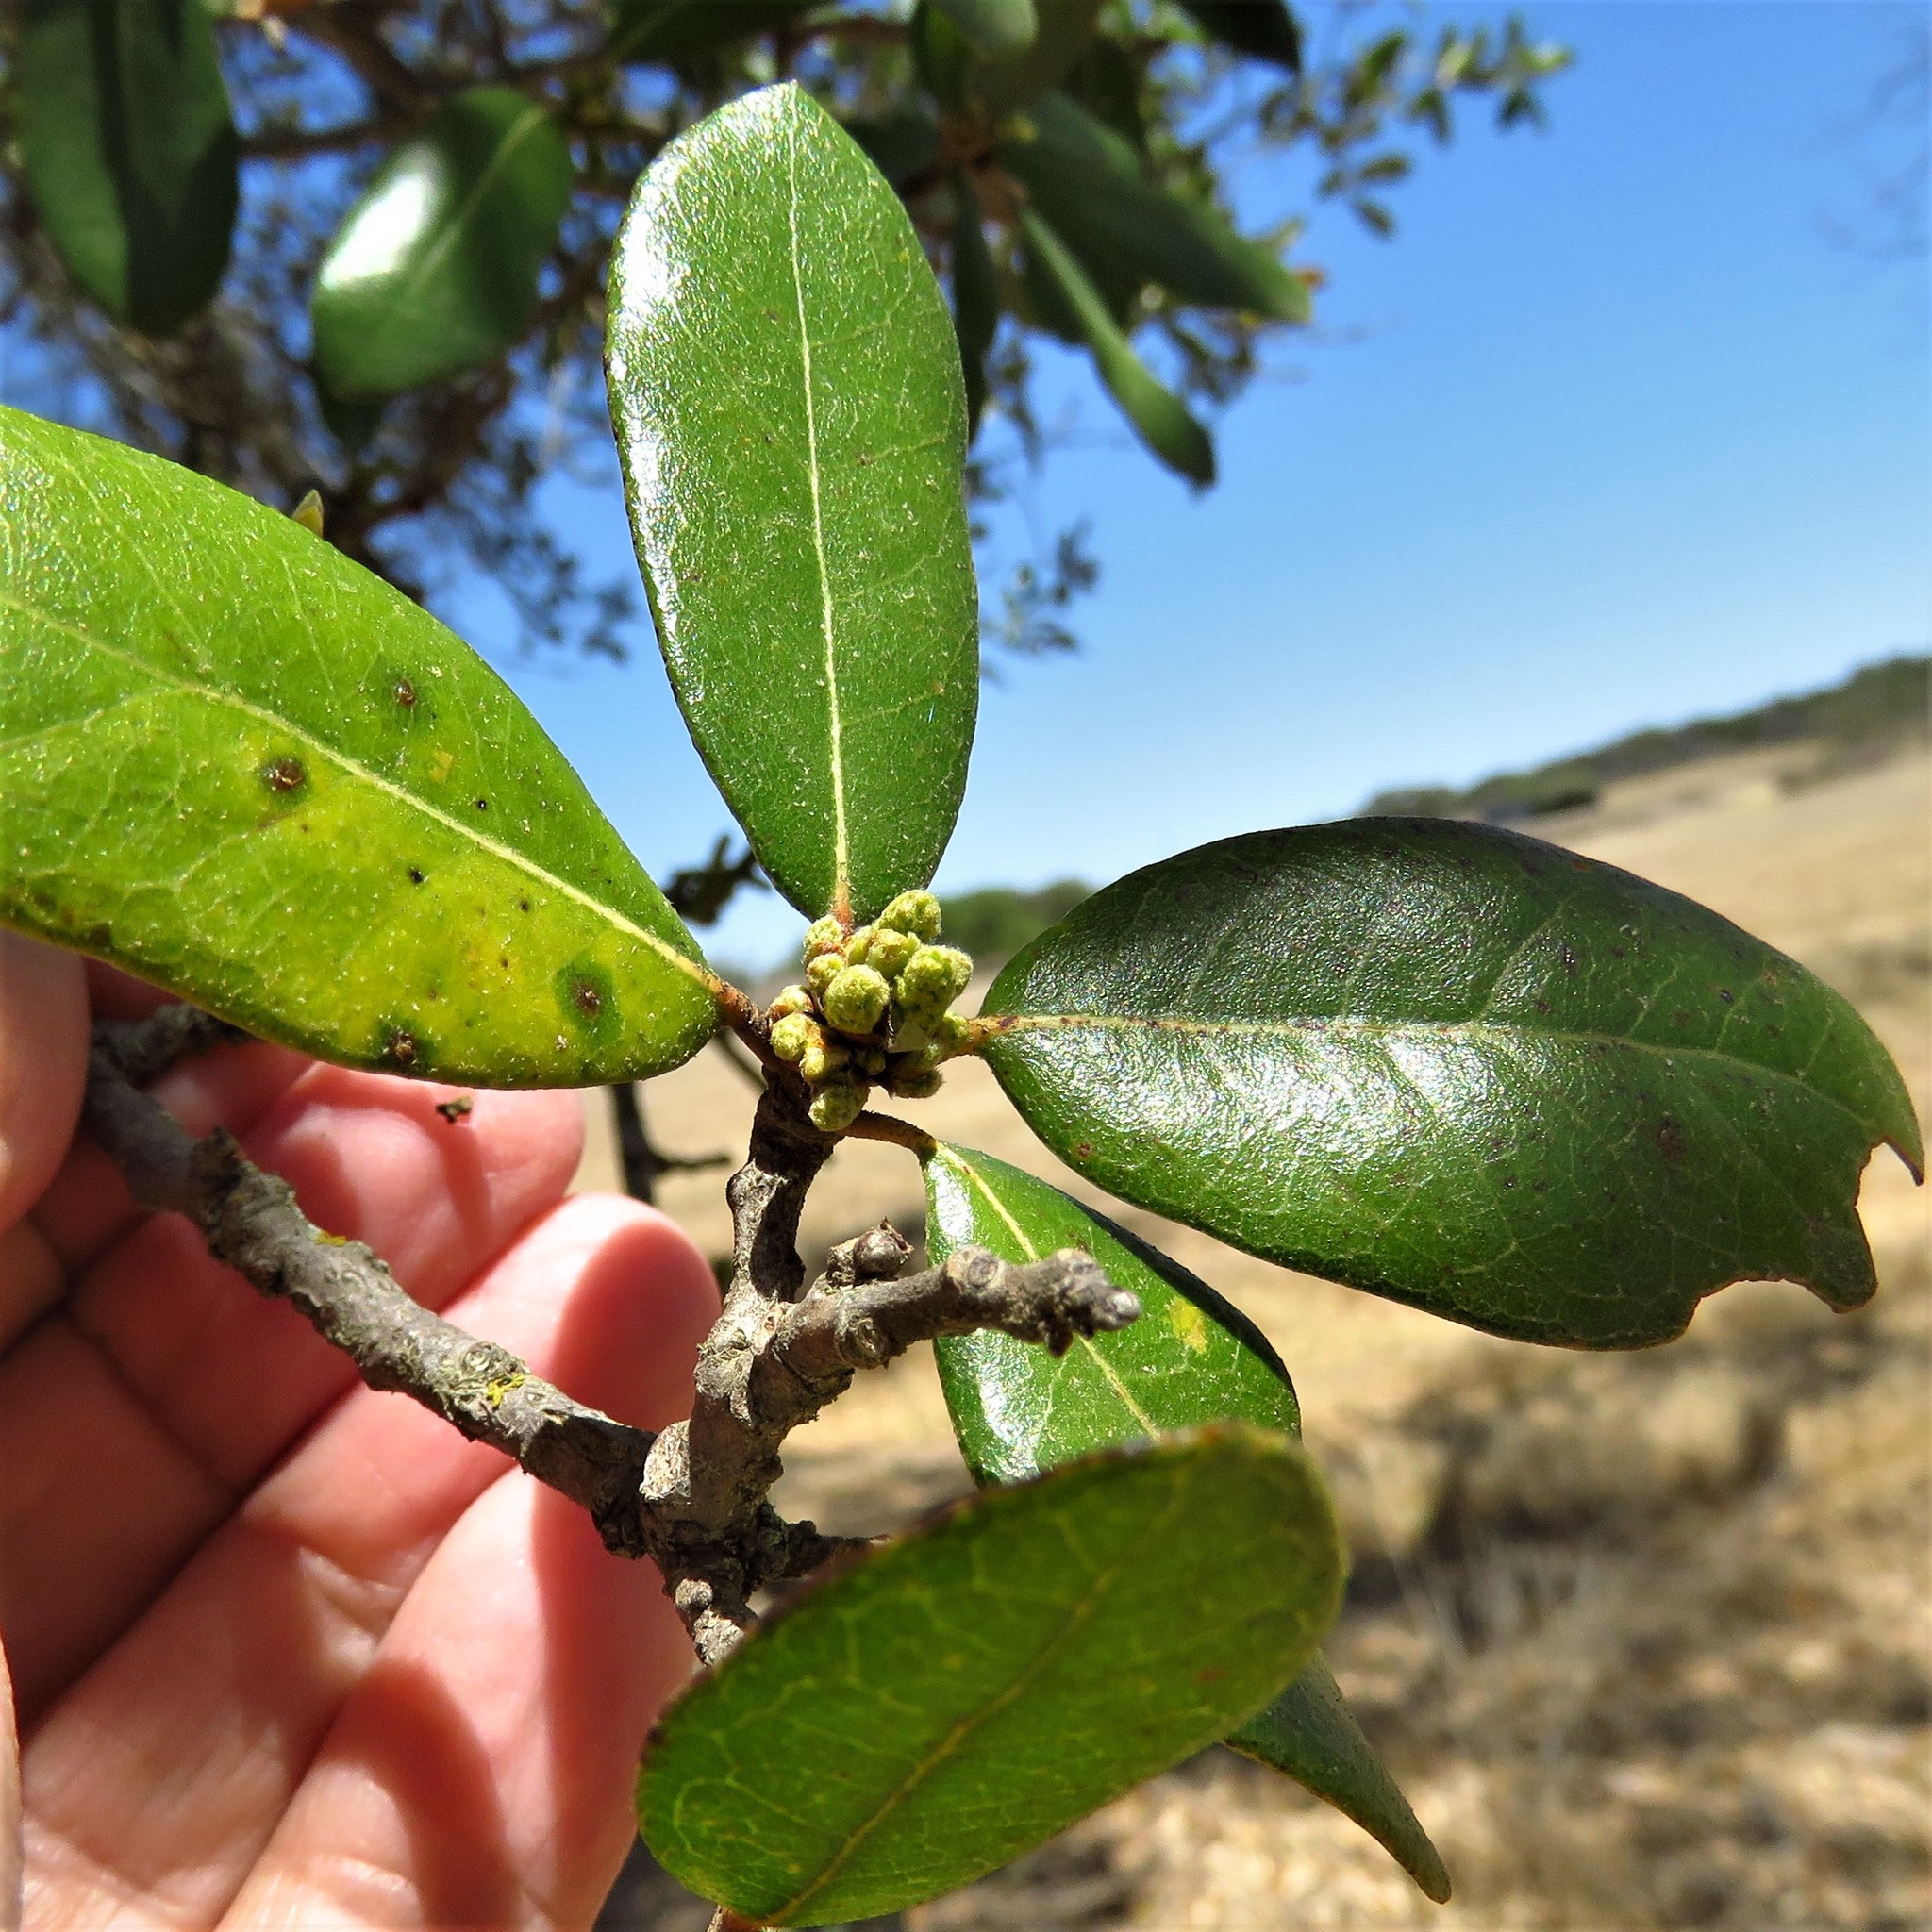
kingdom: Plantae
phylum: Tracheophyta
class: Magnoliopsida
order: Fagales
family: Fagaceae
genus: Quercus
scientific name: Quercus fusiformis
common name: Texas live oak
